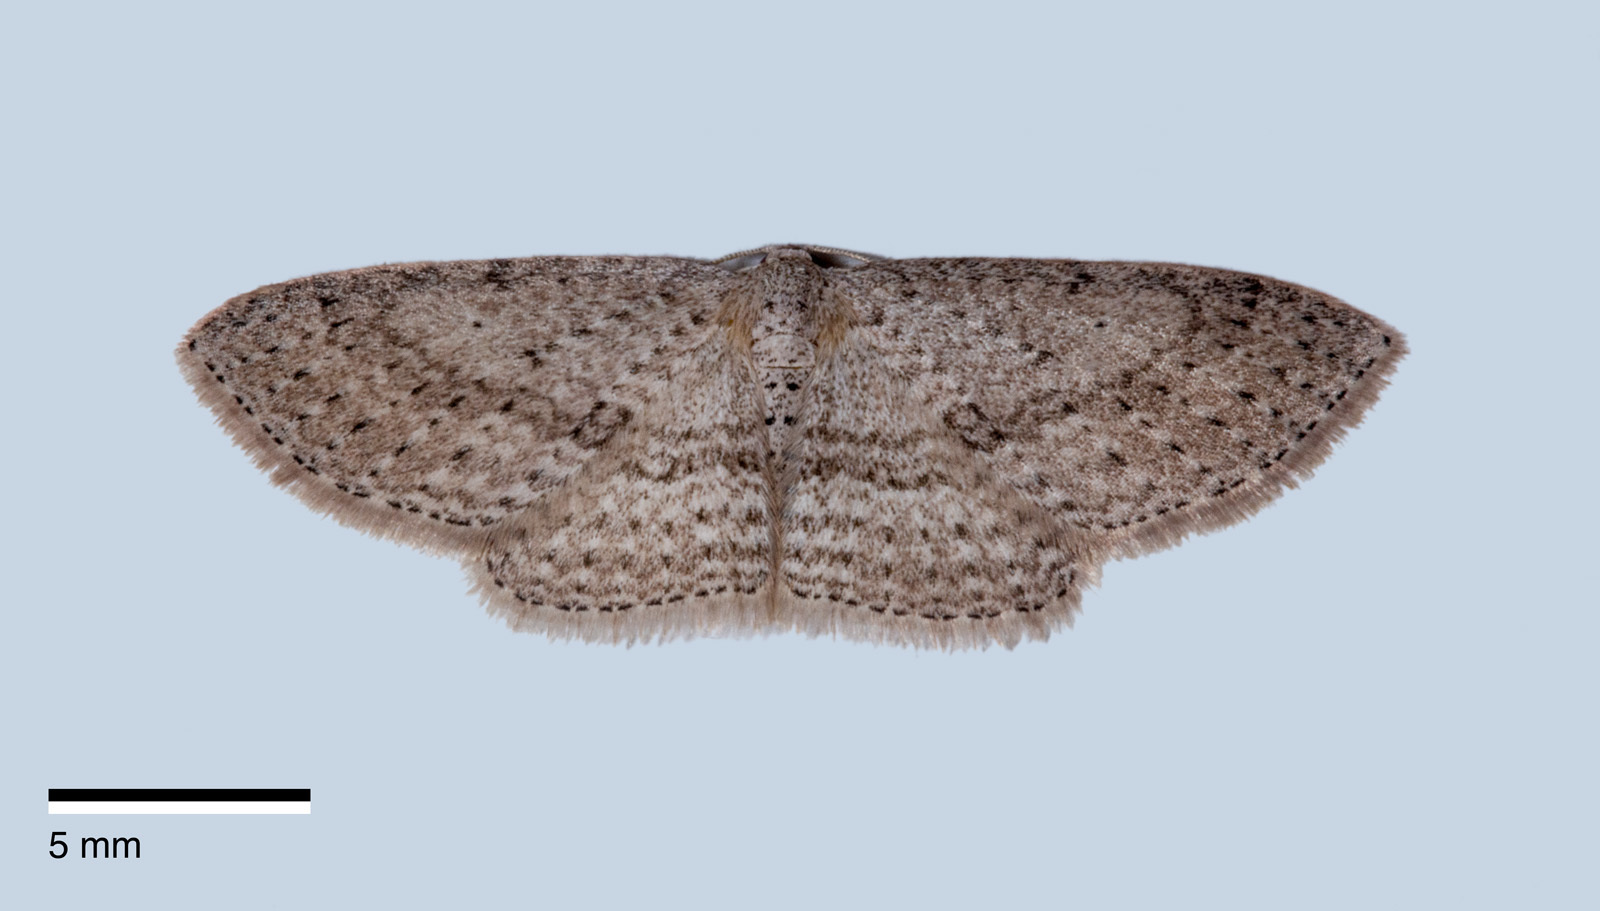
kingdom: Animalia
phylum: Arthropoda
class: Insecta
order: Lepidoptera
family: Geometridae
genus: Poecilasthena
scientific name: Poecilasthena schistaria
